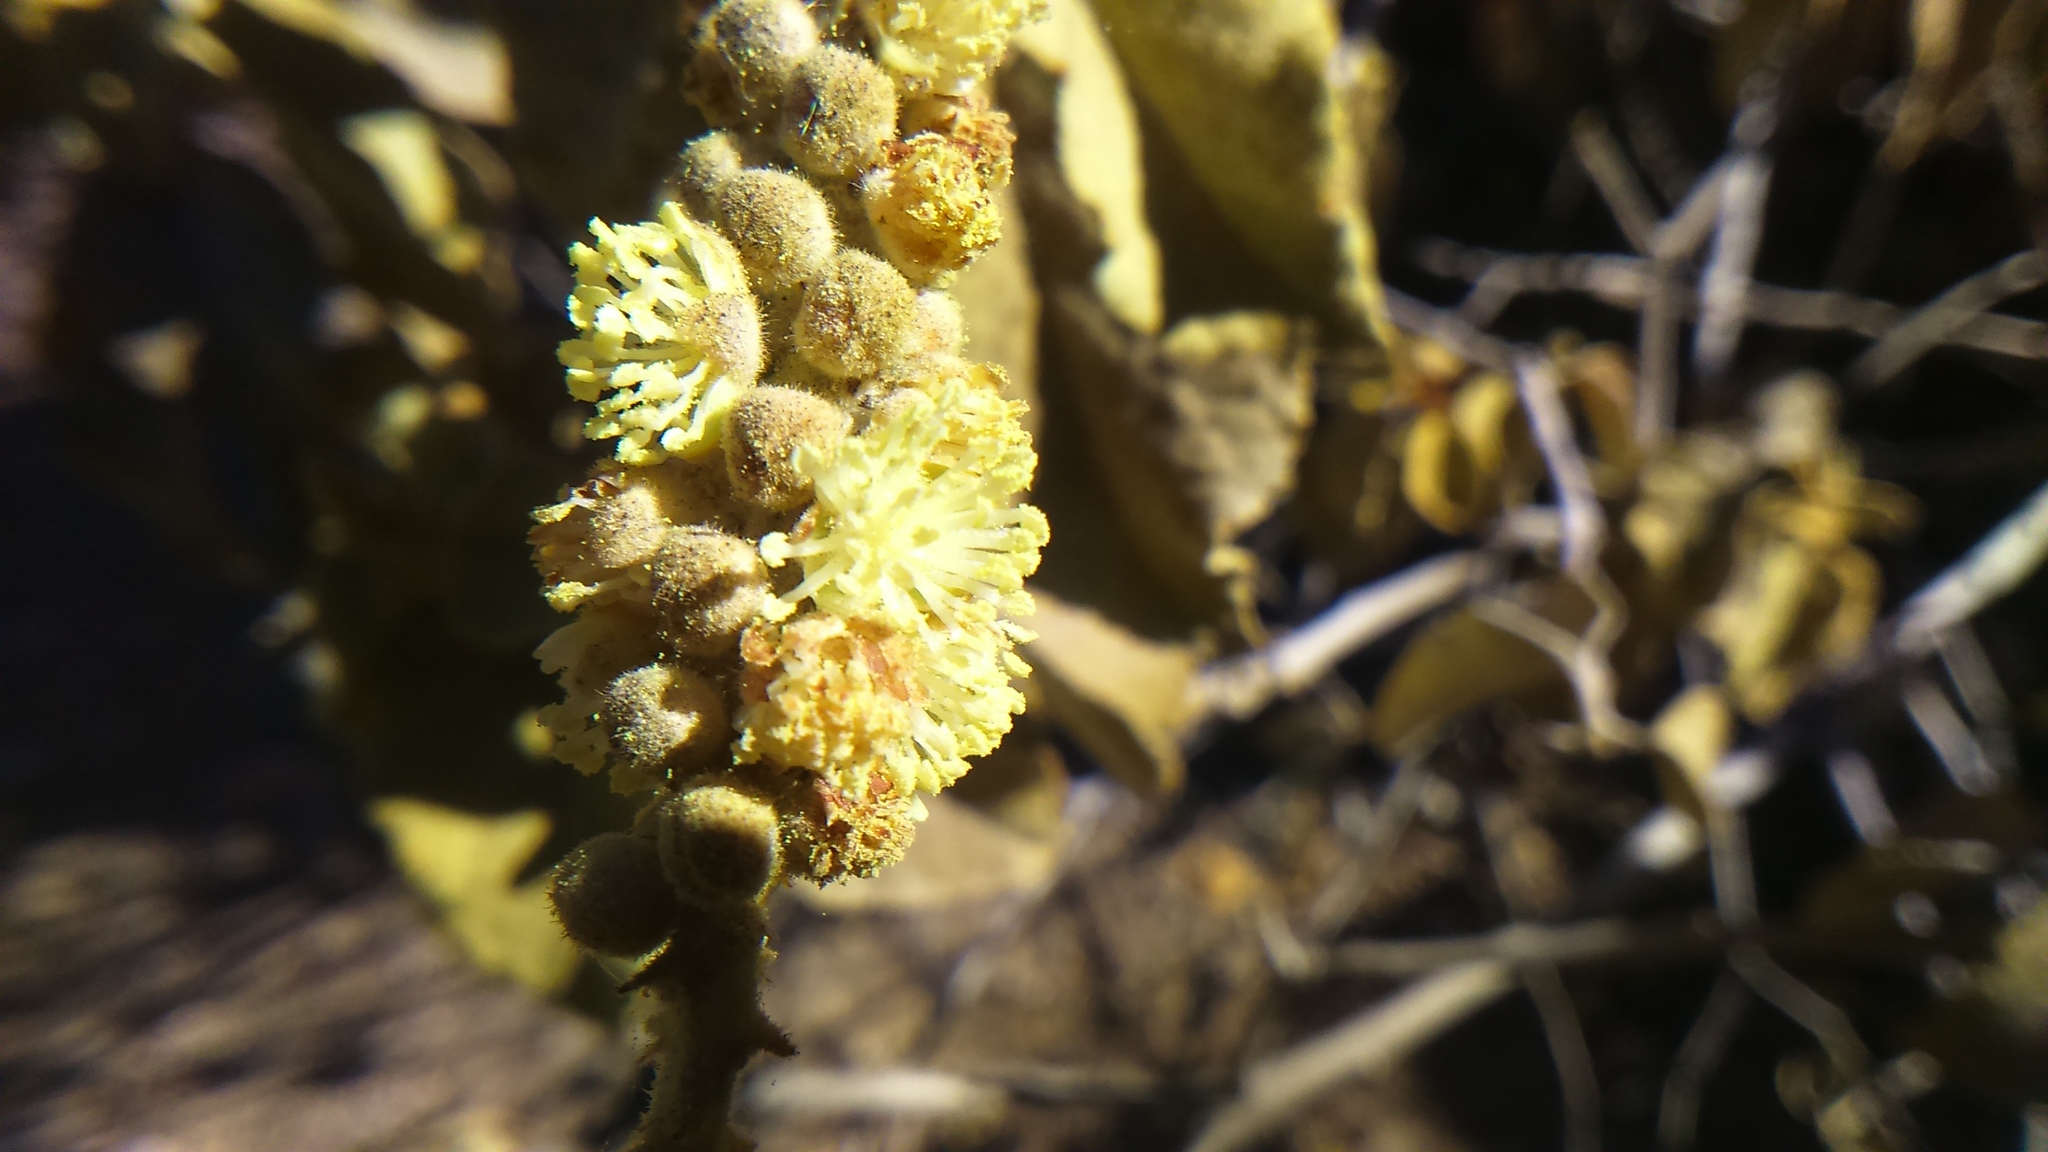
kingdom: Plantae
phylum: Tracheophyta
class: Magnoliopsida
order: Malpighiales
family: Euphorbiaceae
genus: Croton
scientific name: Croton ruizianus
